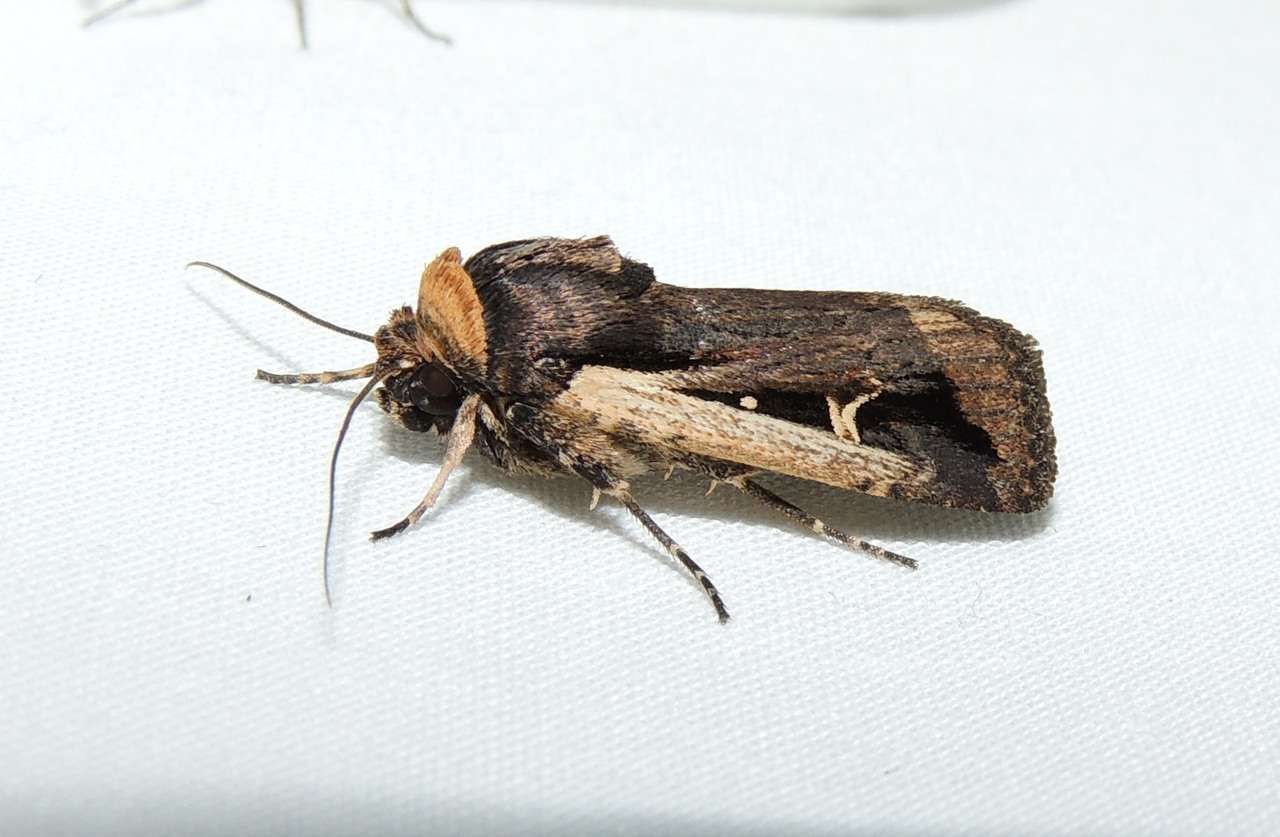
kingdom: Animalia
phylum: Arthropoda
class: Insecta
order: Lepidoptera
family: Noctuidae
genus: Proteuxoa
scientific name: Proteuxoa tortisigna
